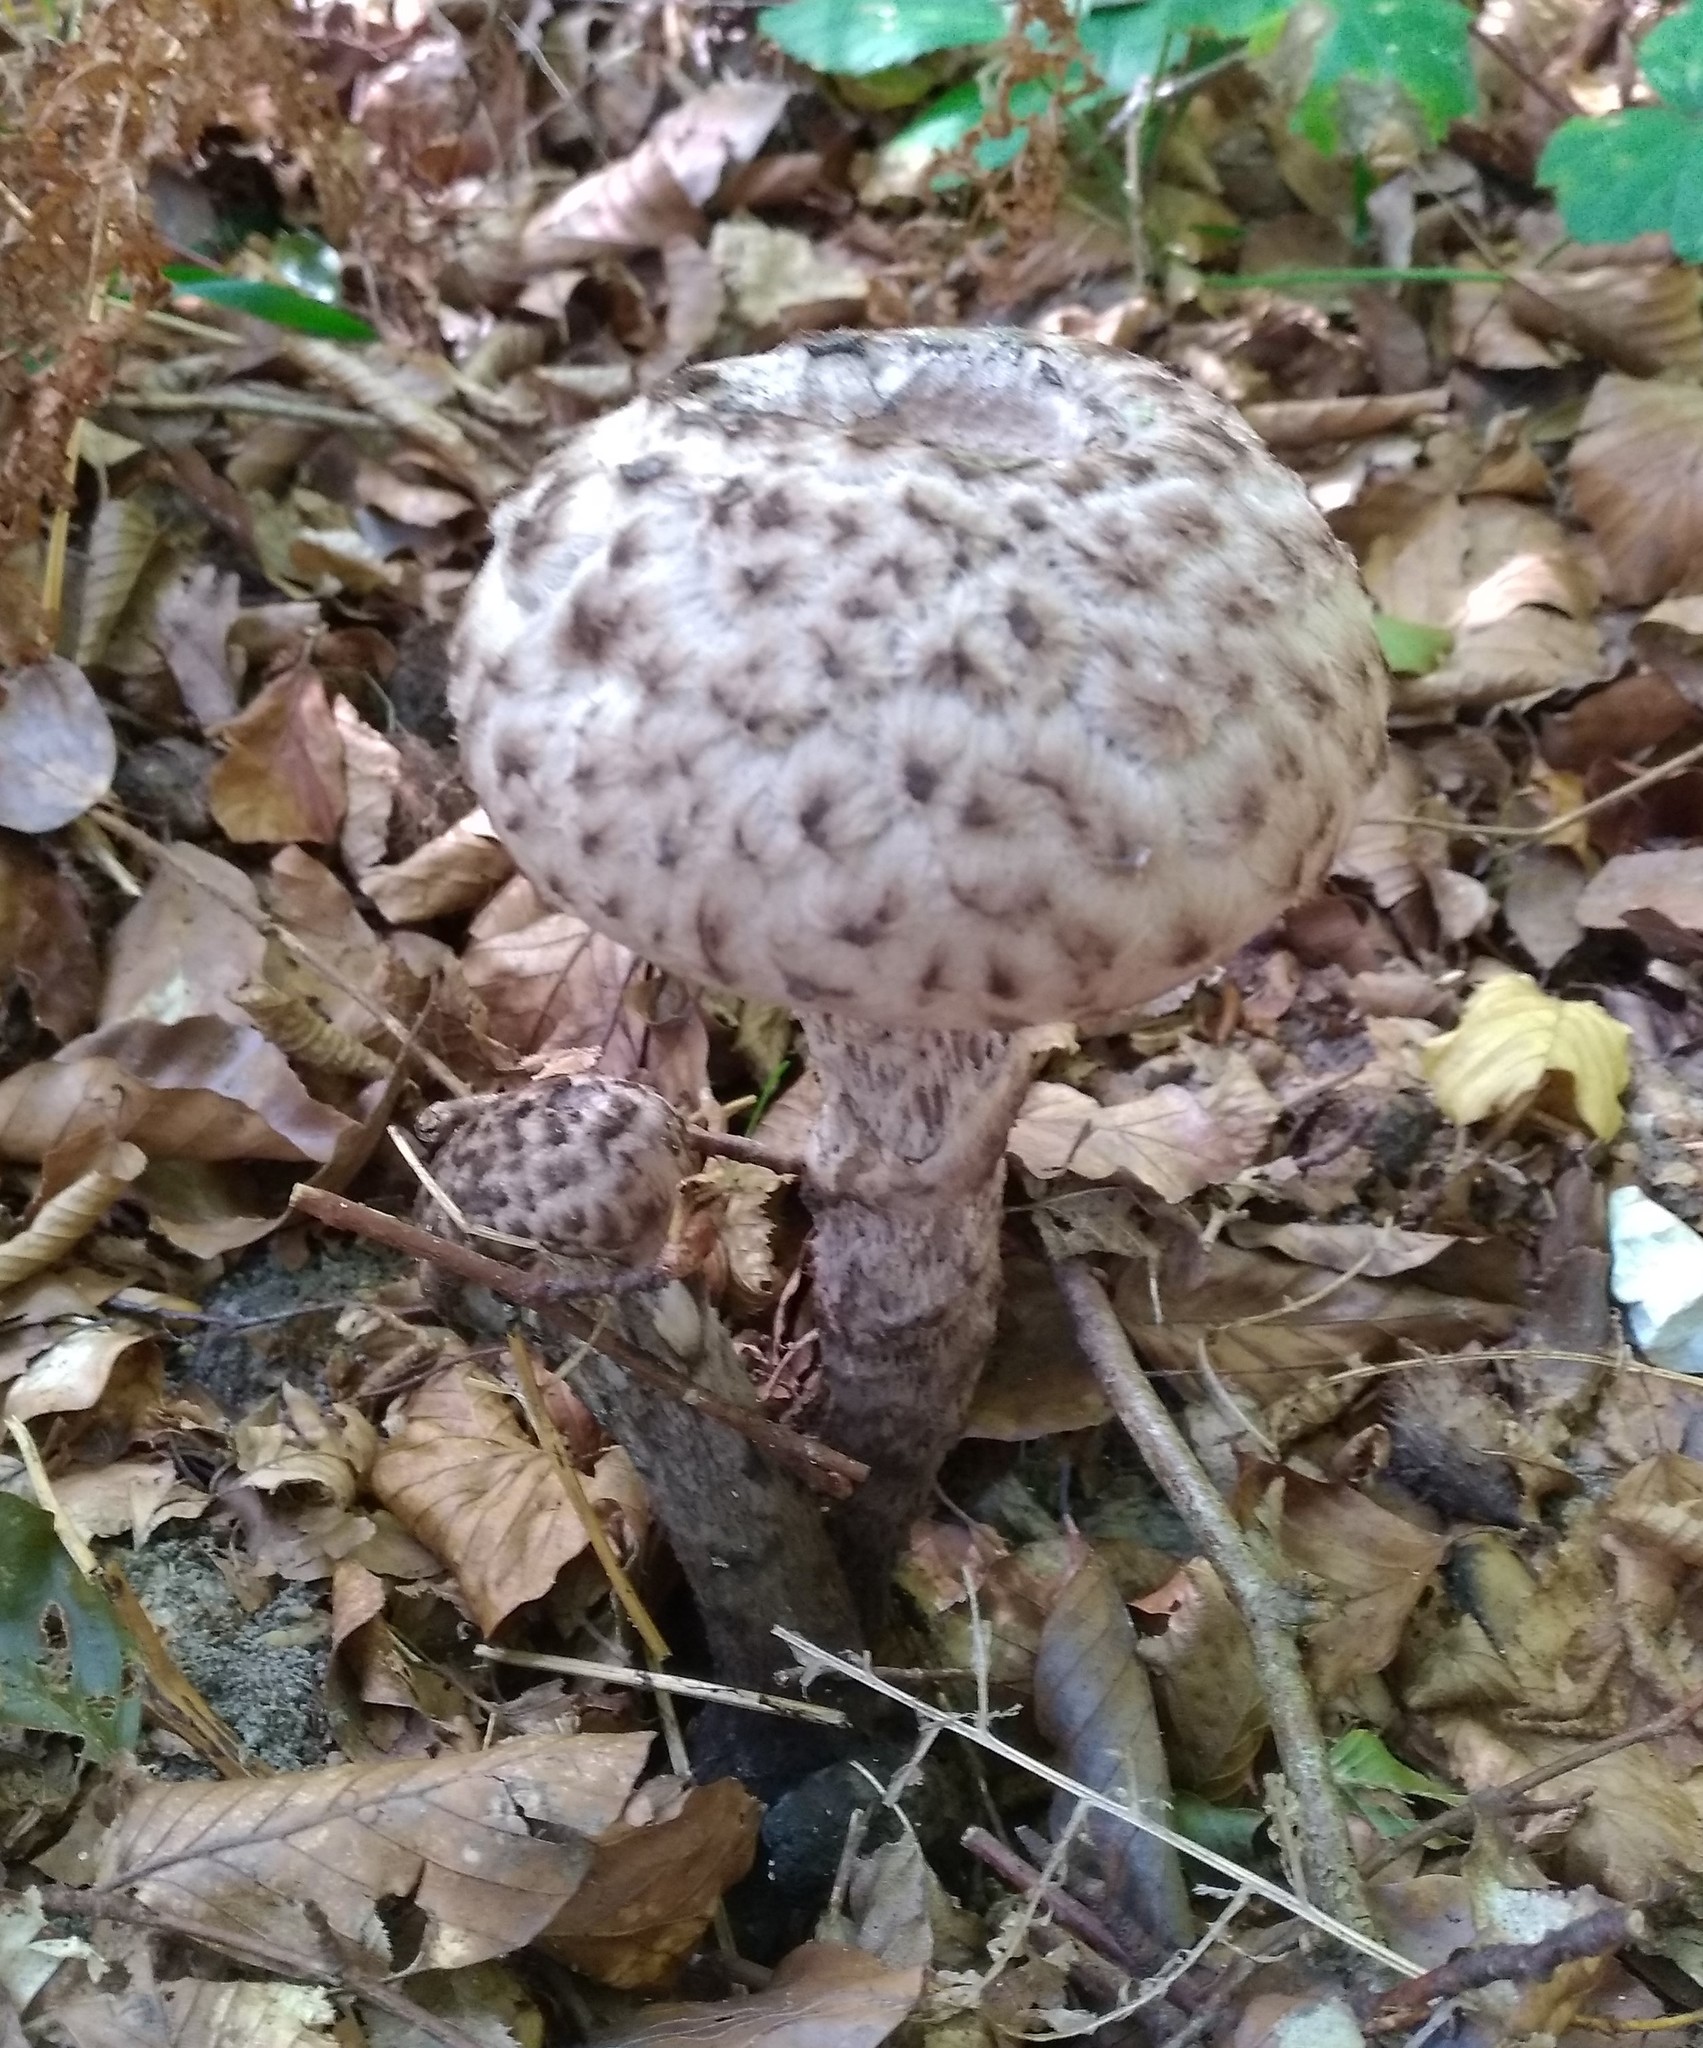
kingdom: Fungi
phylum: Basidiomycota
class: Agaricomycetes
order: Boletales
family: Boletaceae
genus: Strobilomyces
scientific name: Strobilomyces strobilaceus
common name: Old man of the woods
